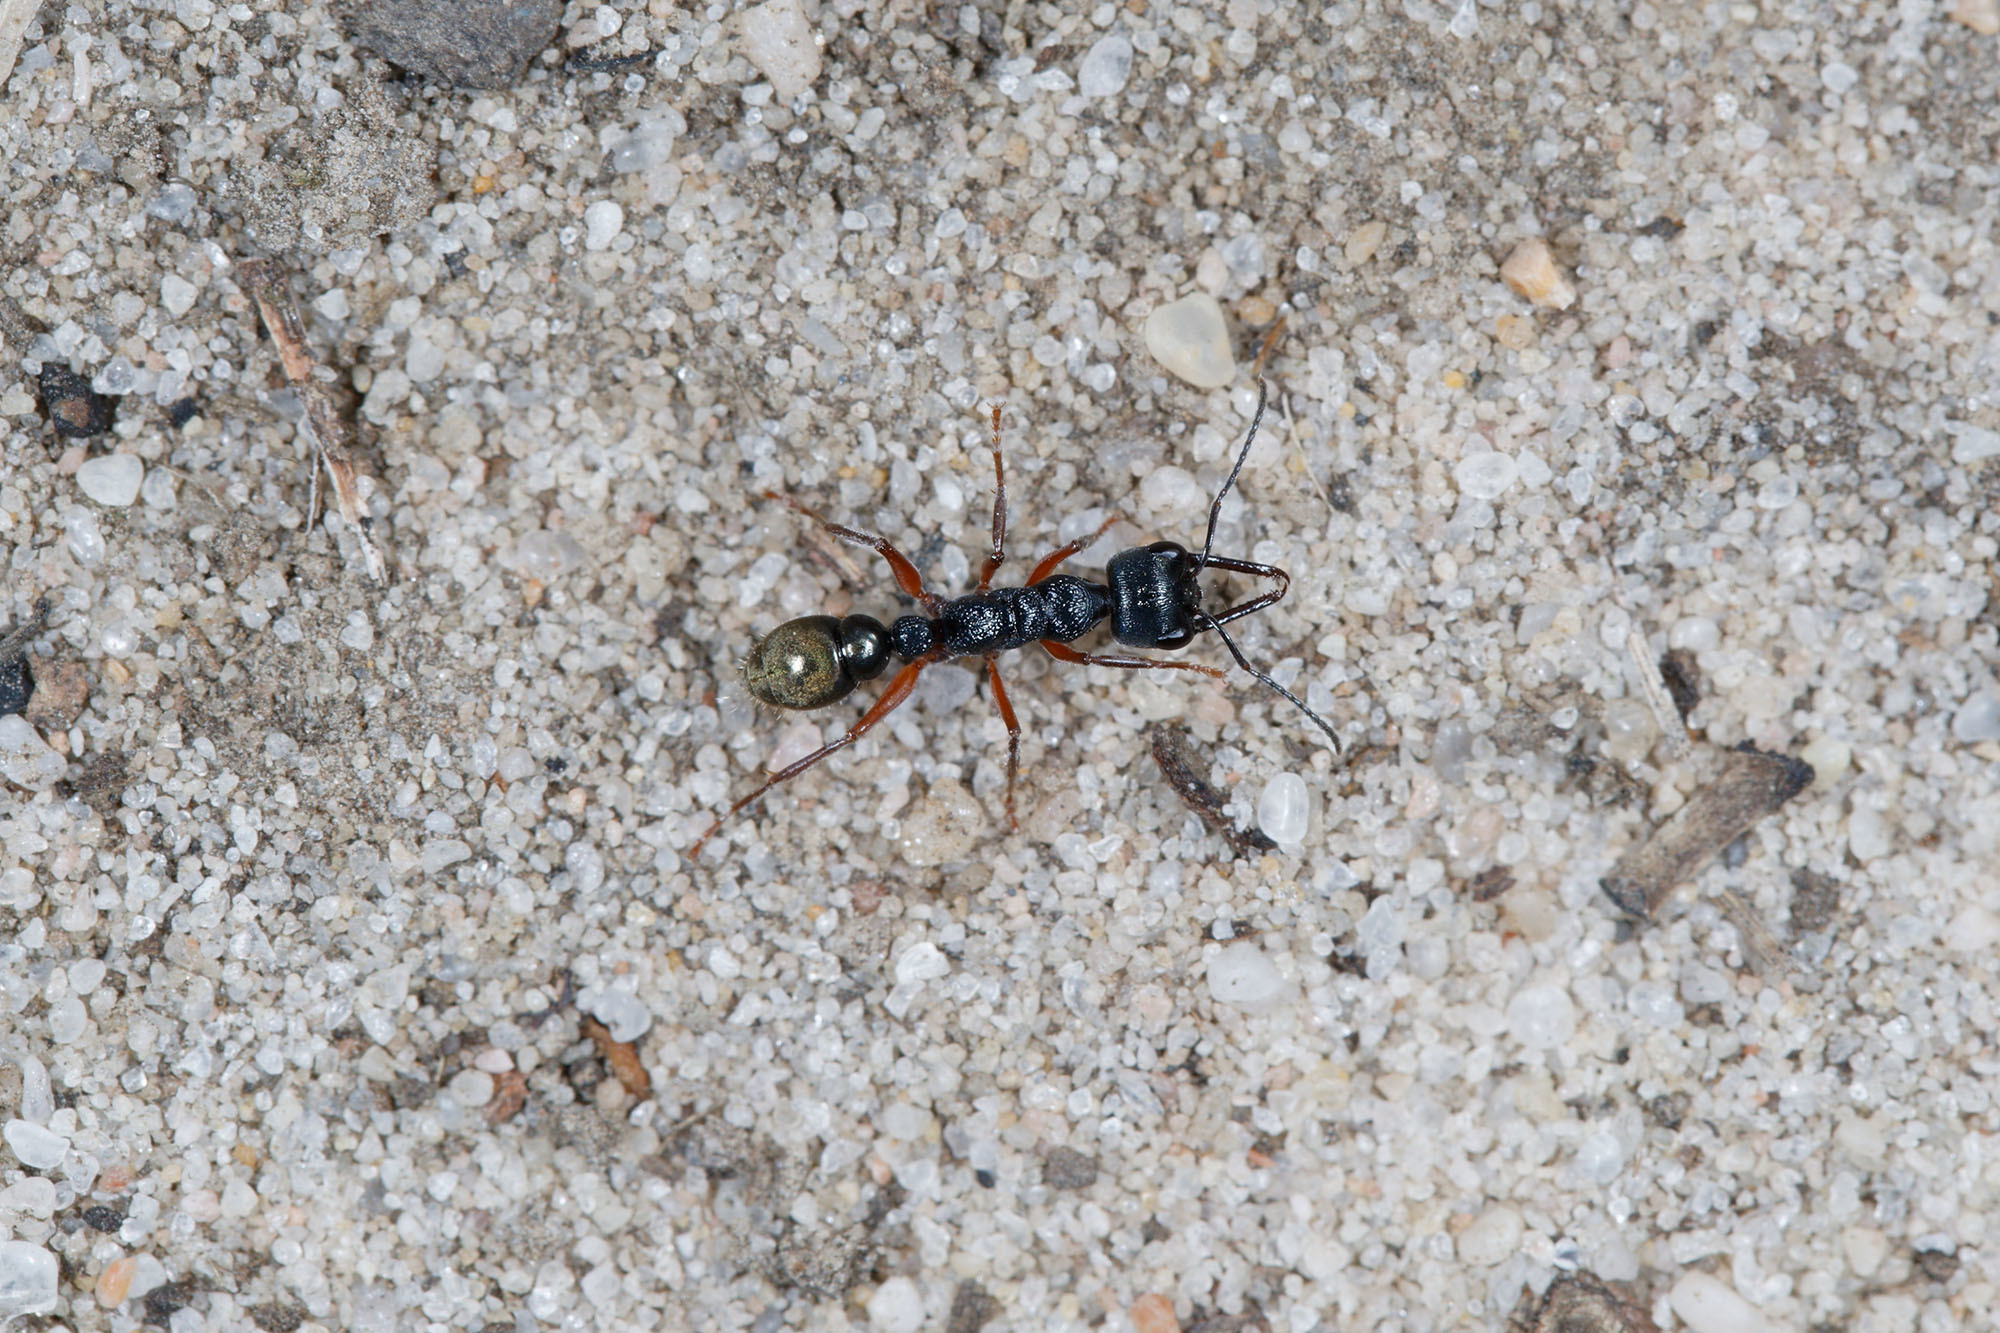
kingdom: Animalia
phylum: Arthropoda
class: Insecta
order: Hymenoptera
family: Formicidae
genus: Myrmecia
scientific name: Myrmecia fulvipes
